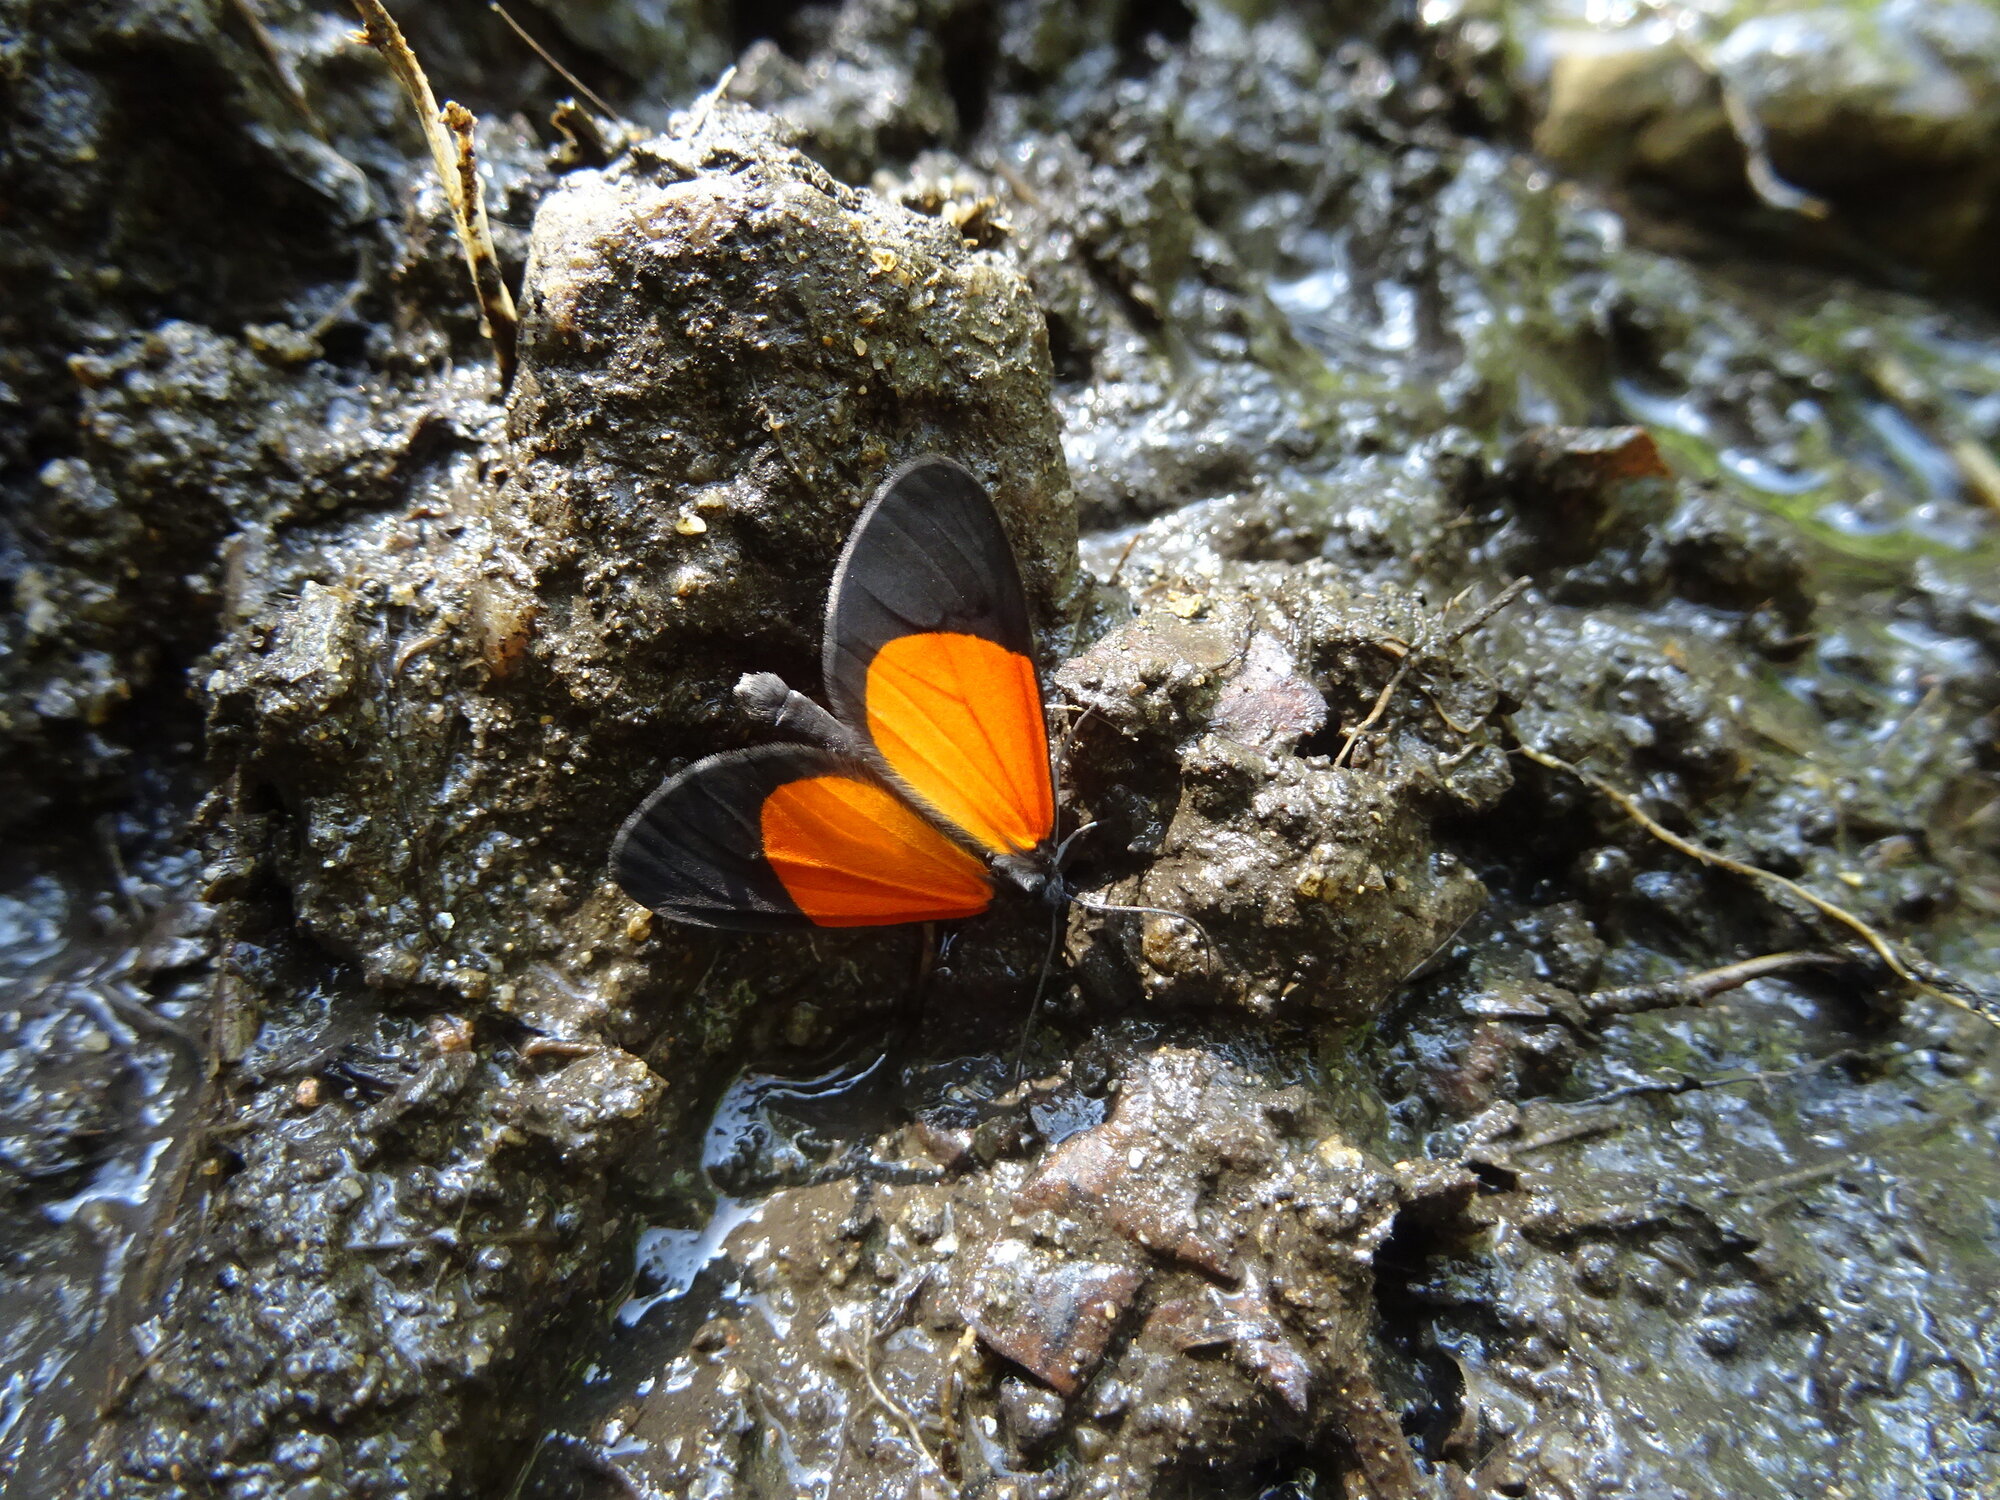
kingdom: Animalia
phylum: Arthropoda
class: Insecta
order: Lepidoptera
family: Geometridae
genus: Eudule
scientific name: Eudule fidentia
